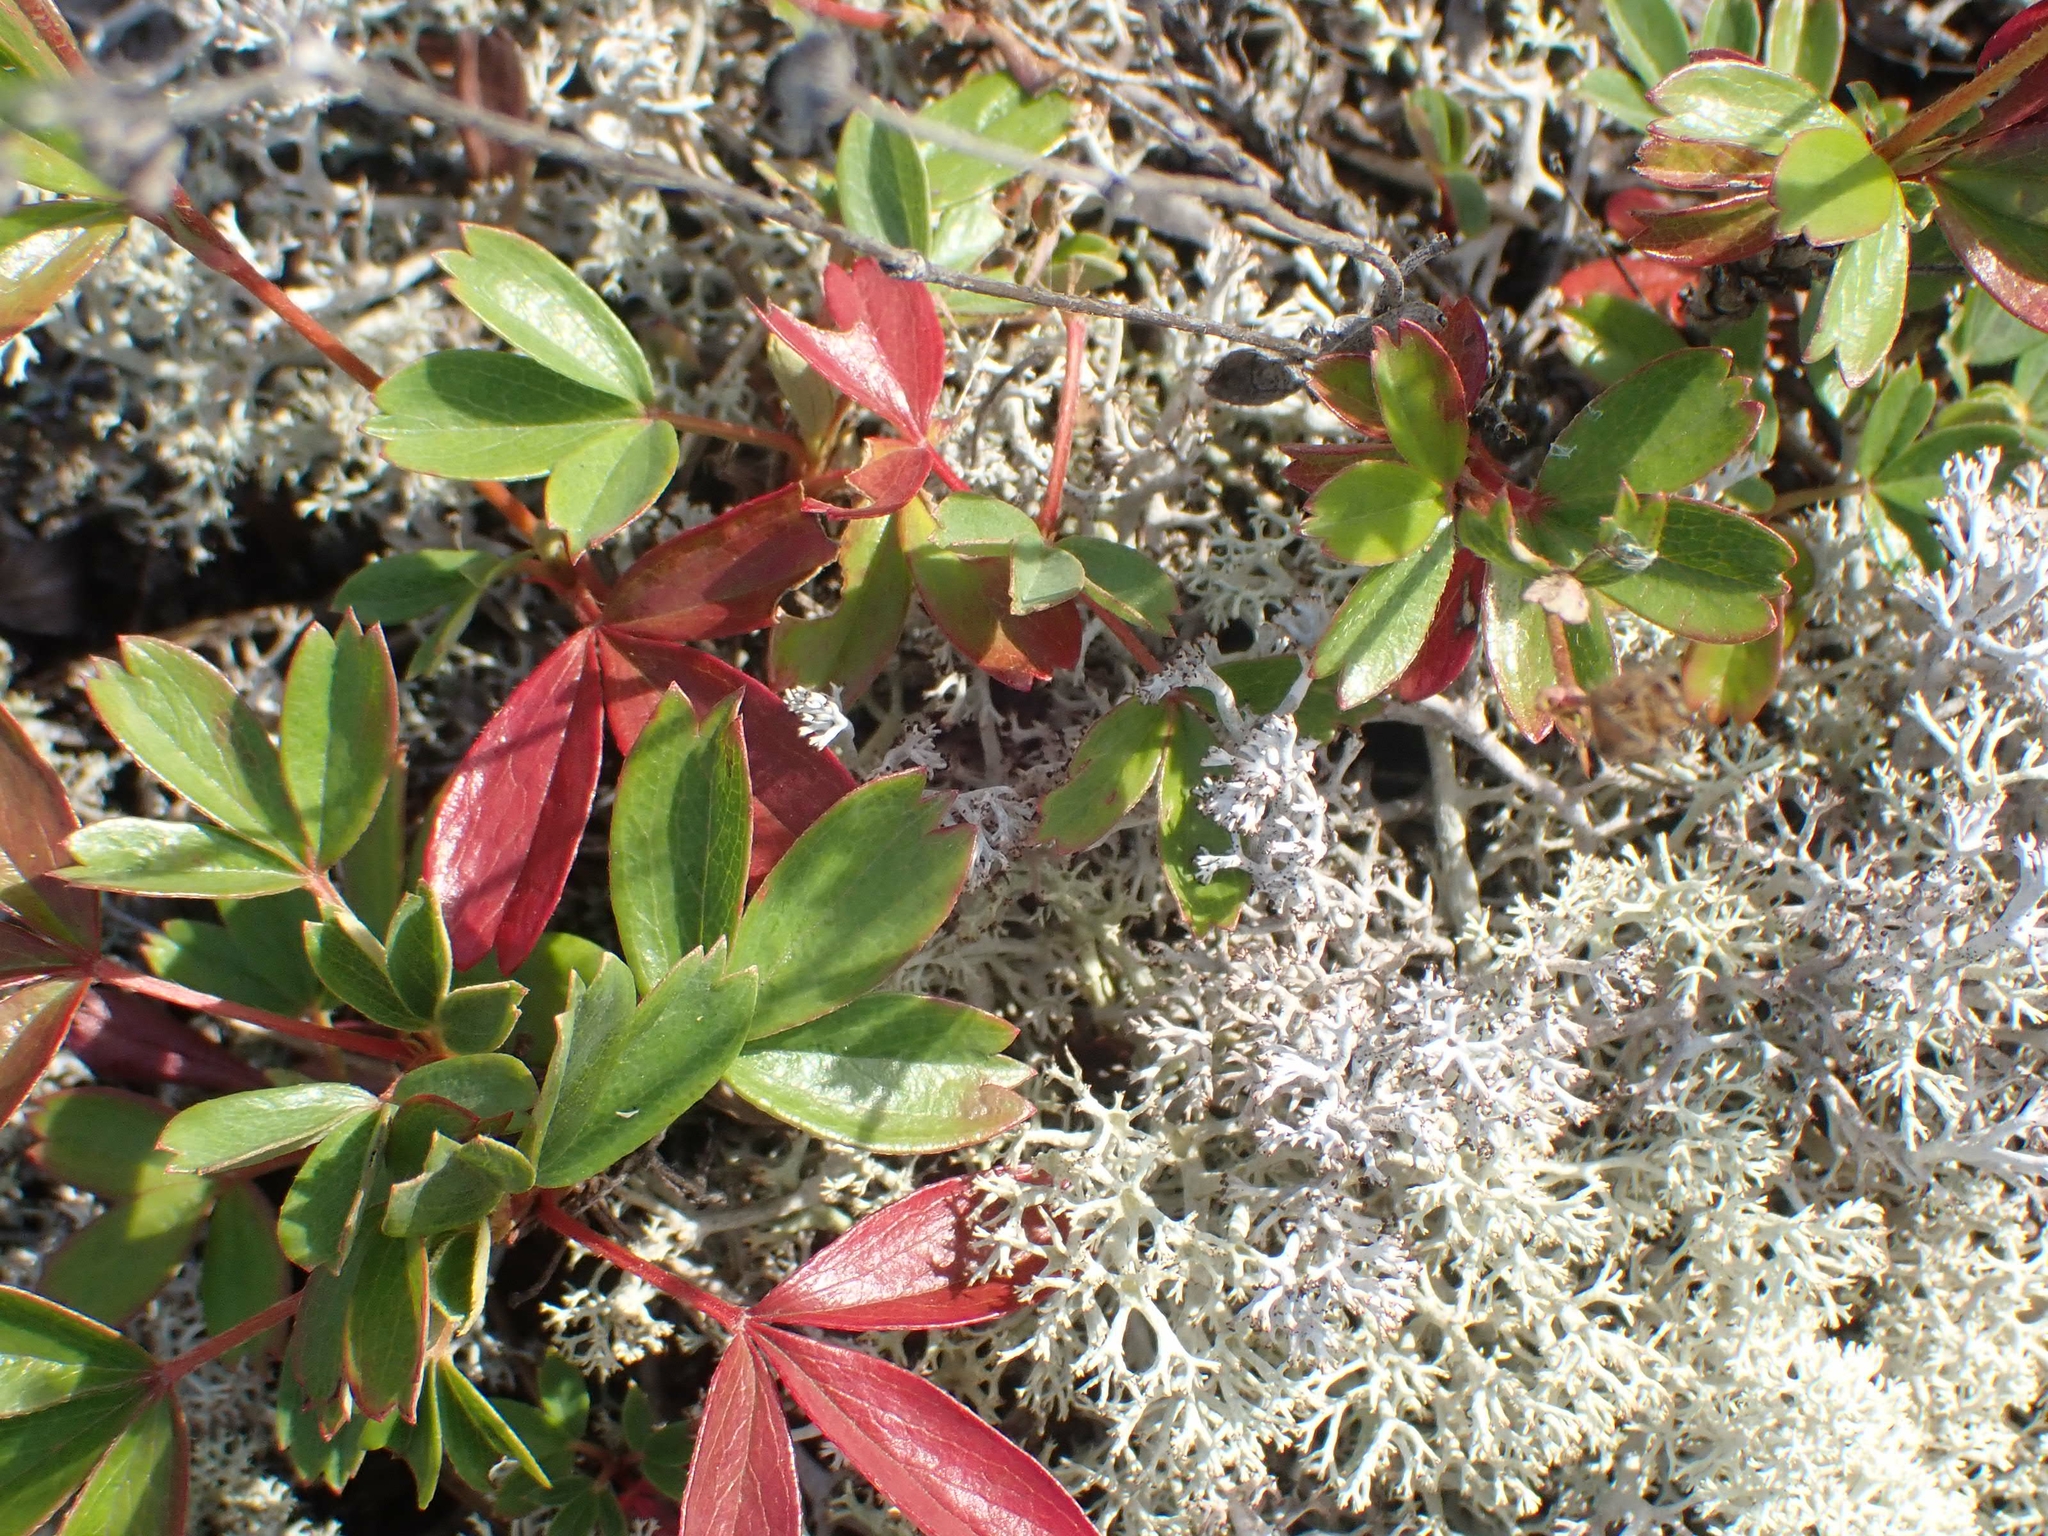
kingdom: Plantae
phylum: Tracheophyta
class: Magnoliopsida
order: Rosales
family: Rosaceae
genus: Sibbaldia
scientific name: Sibbaldia tridentata
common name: Three-toothed cinquefoil
